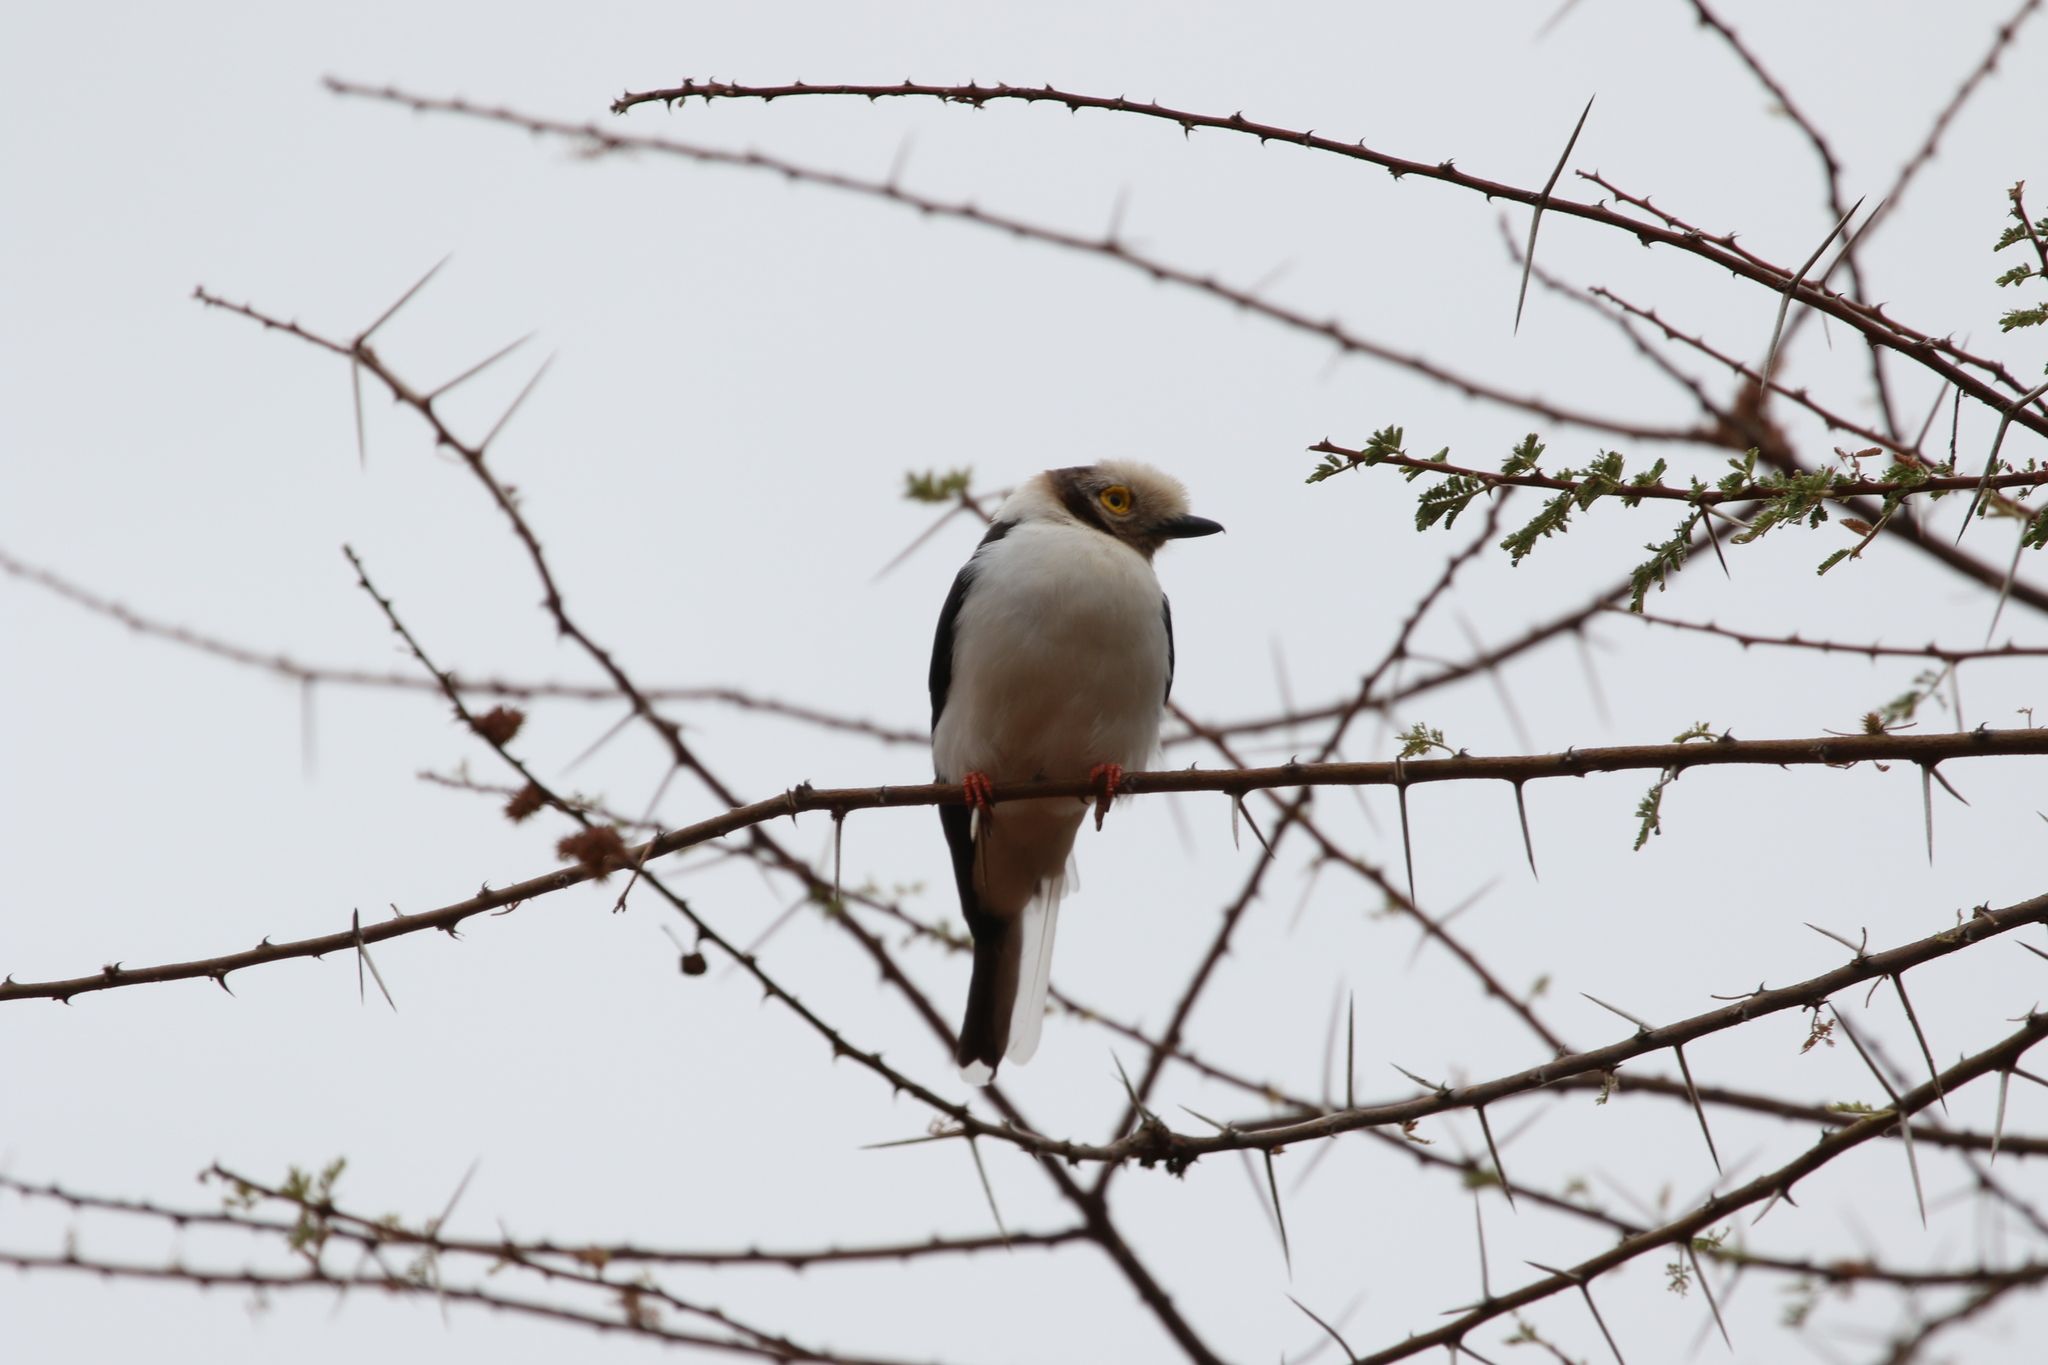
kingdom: Animalia
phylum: Chordata
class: Aves
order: Passeriformes
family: Prionopidae
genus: Prionops
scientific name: Prionops plumatus
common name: White-crested helmetshrike
